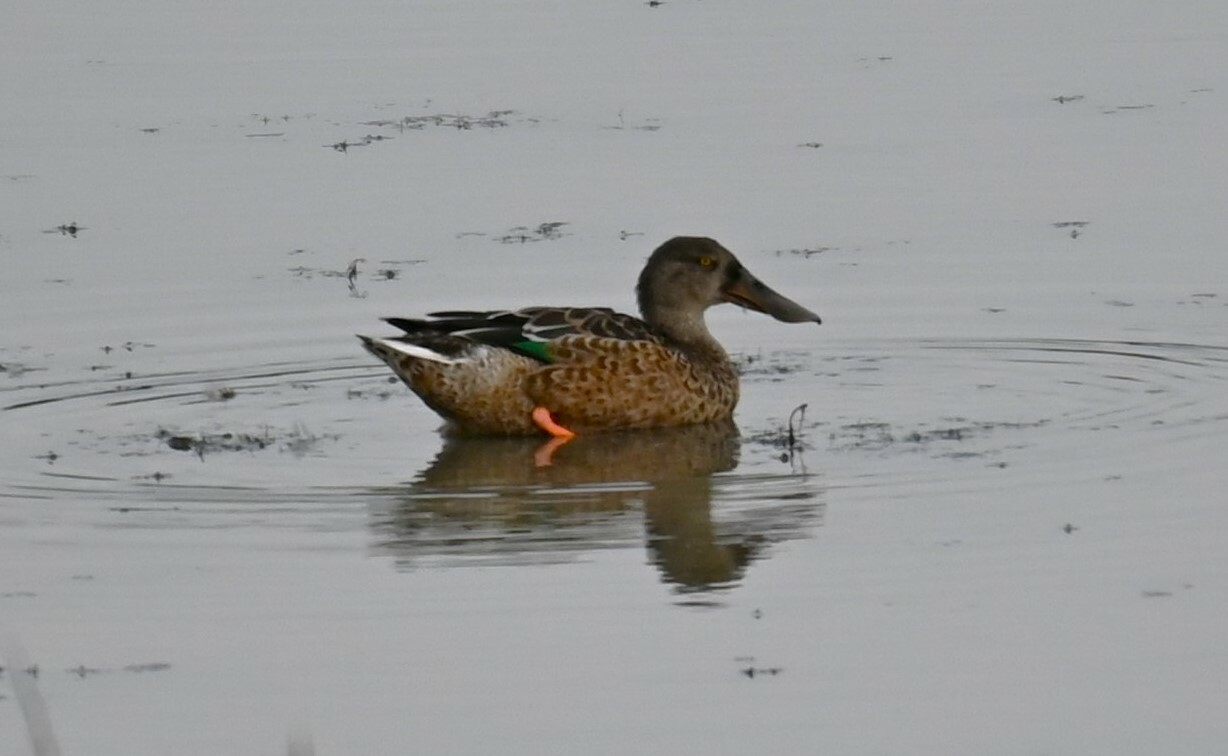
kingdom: Animalia
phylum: Chordata
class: Aves
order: Anseriformes
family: Anatidae
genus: Spatula
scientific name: Spatula clypeata
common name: Northern shoveler
